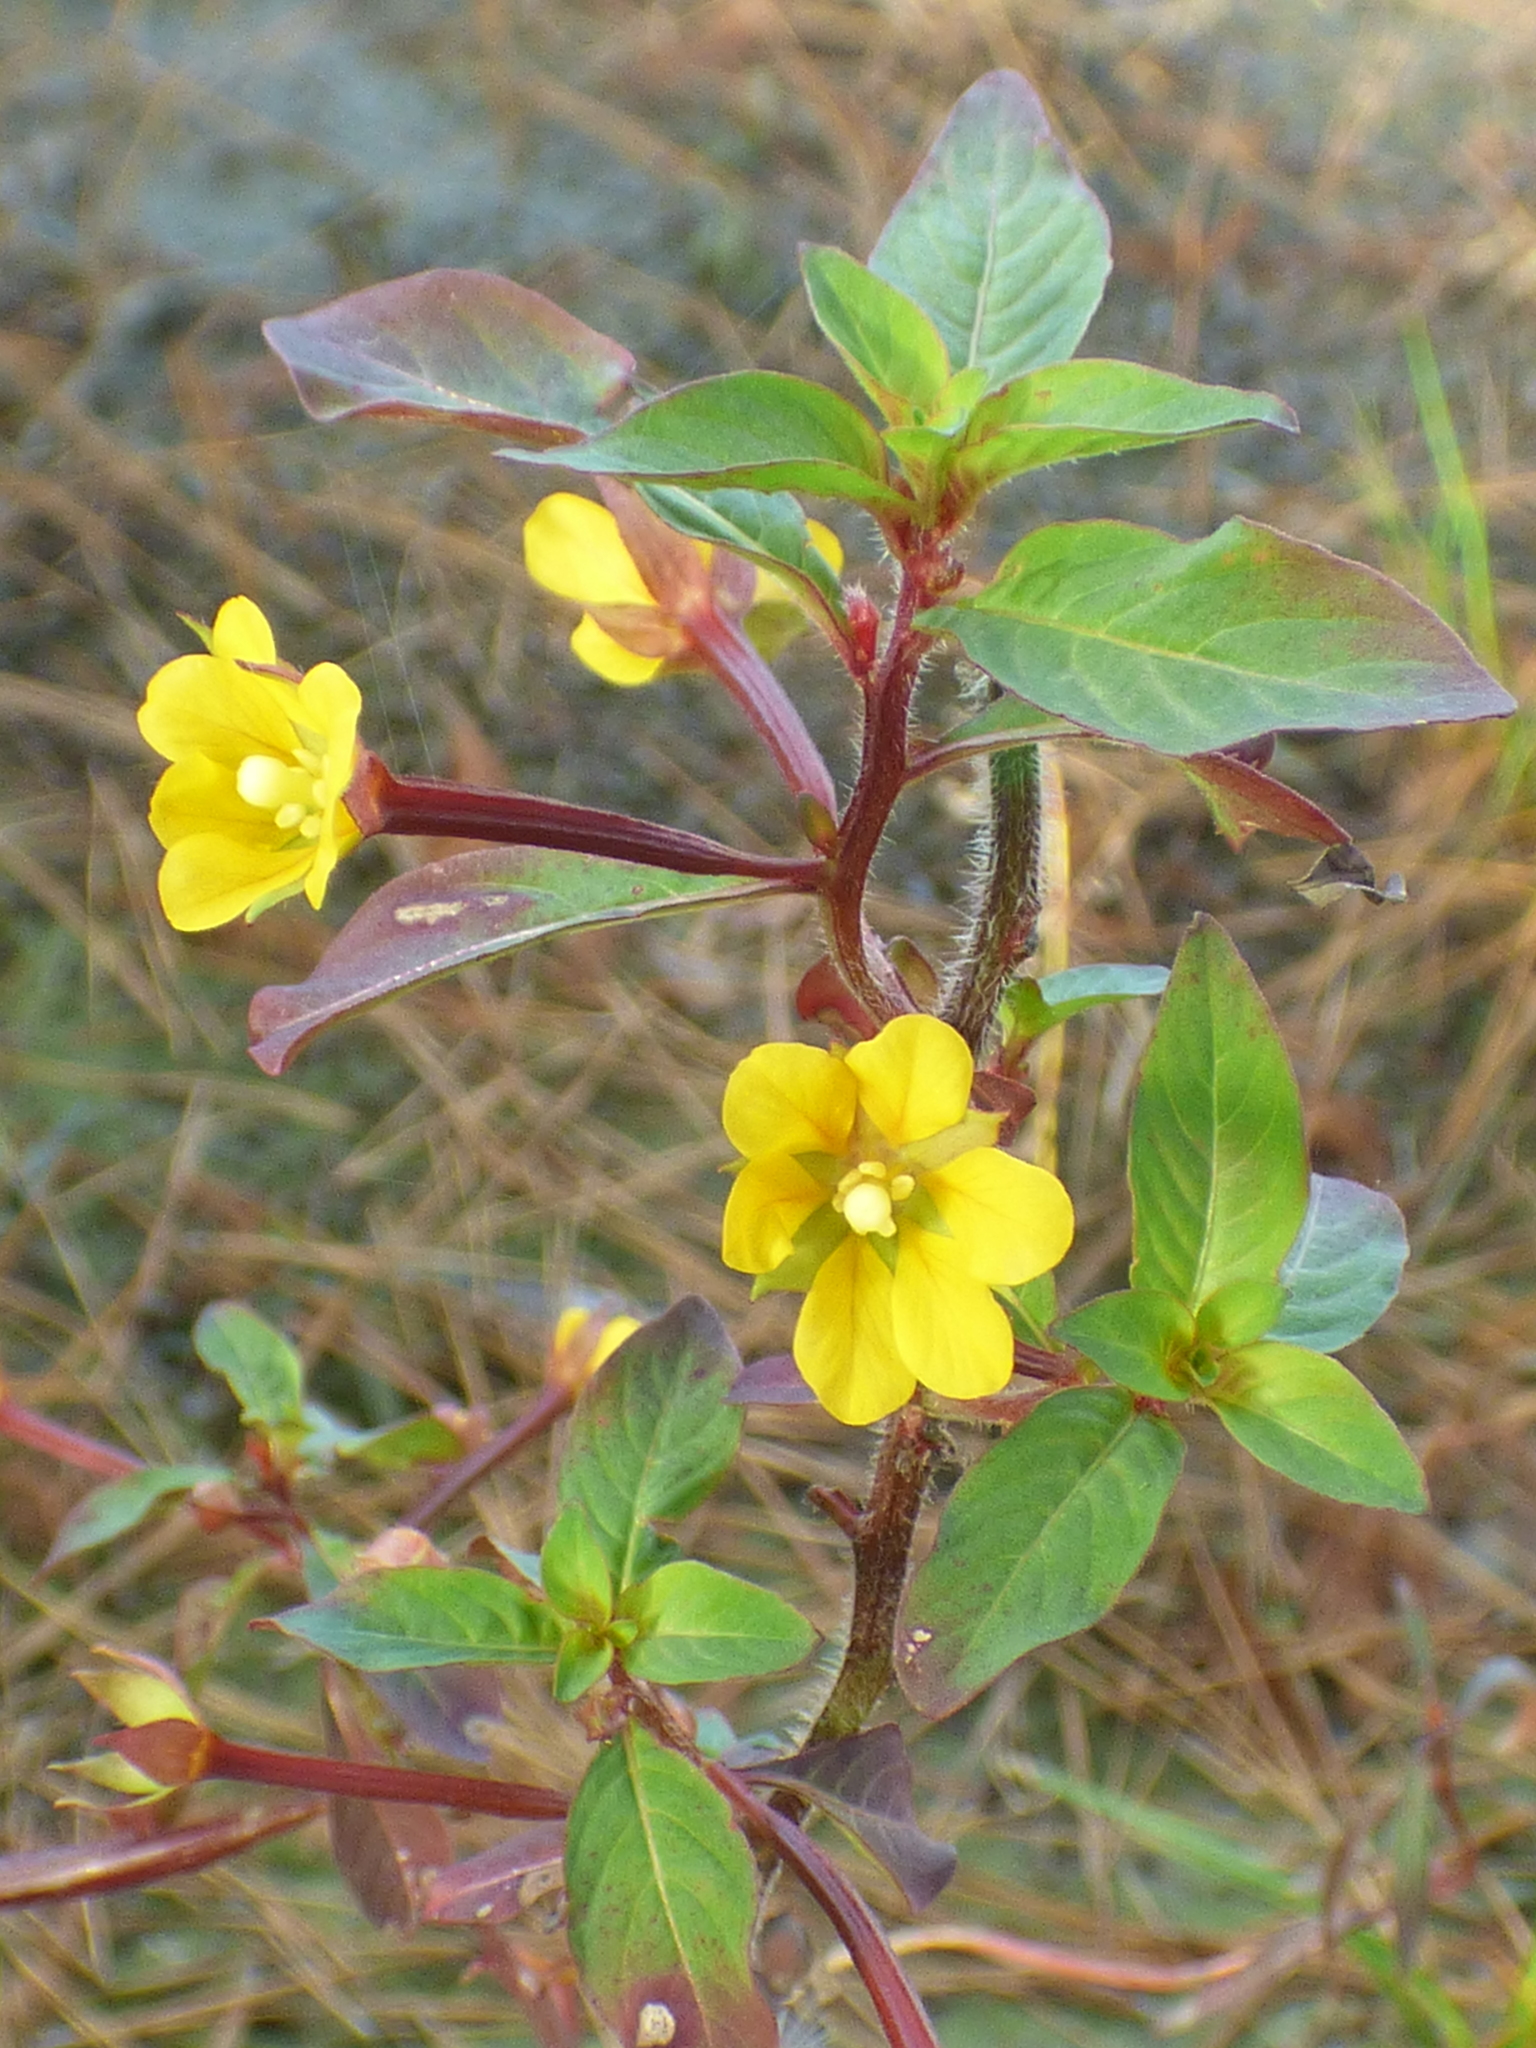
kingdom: Plantae
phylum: Tracheophyta
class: Magnoliopsida
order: Myrtales
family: Onagraceae
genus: Ludwigia
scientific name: Ludwigia leptocarpa
